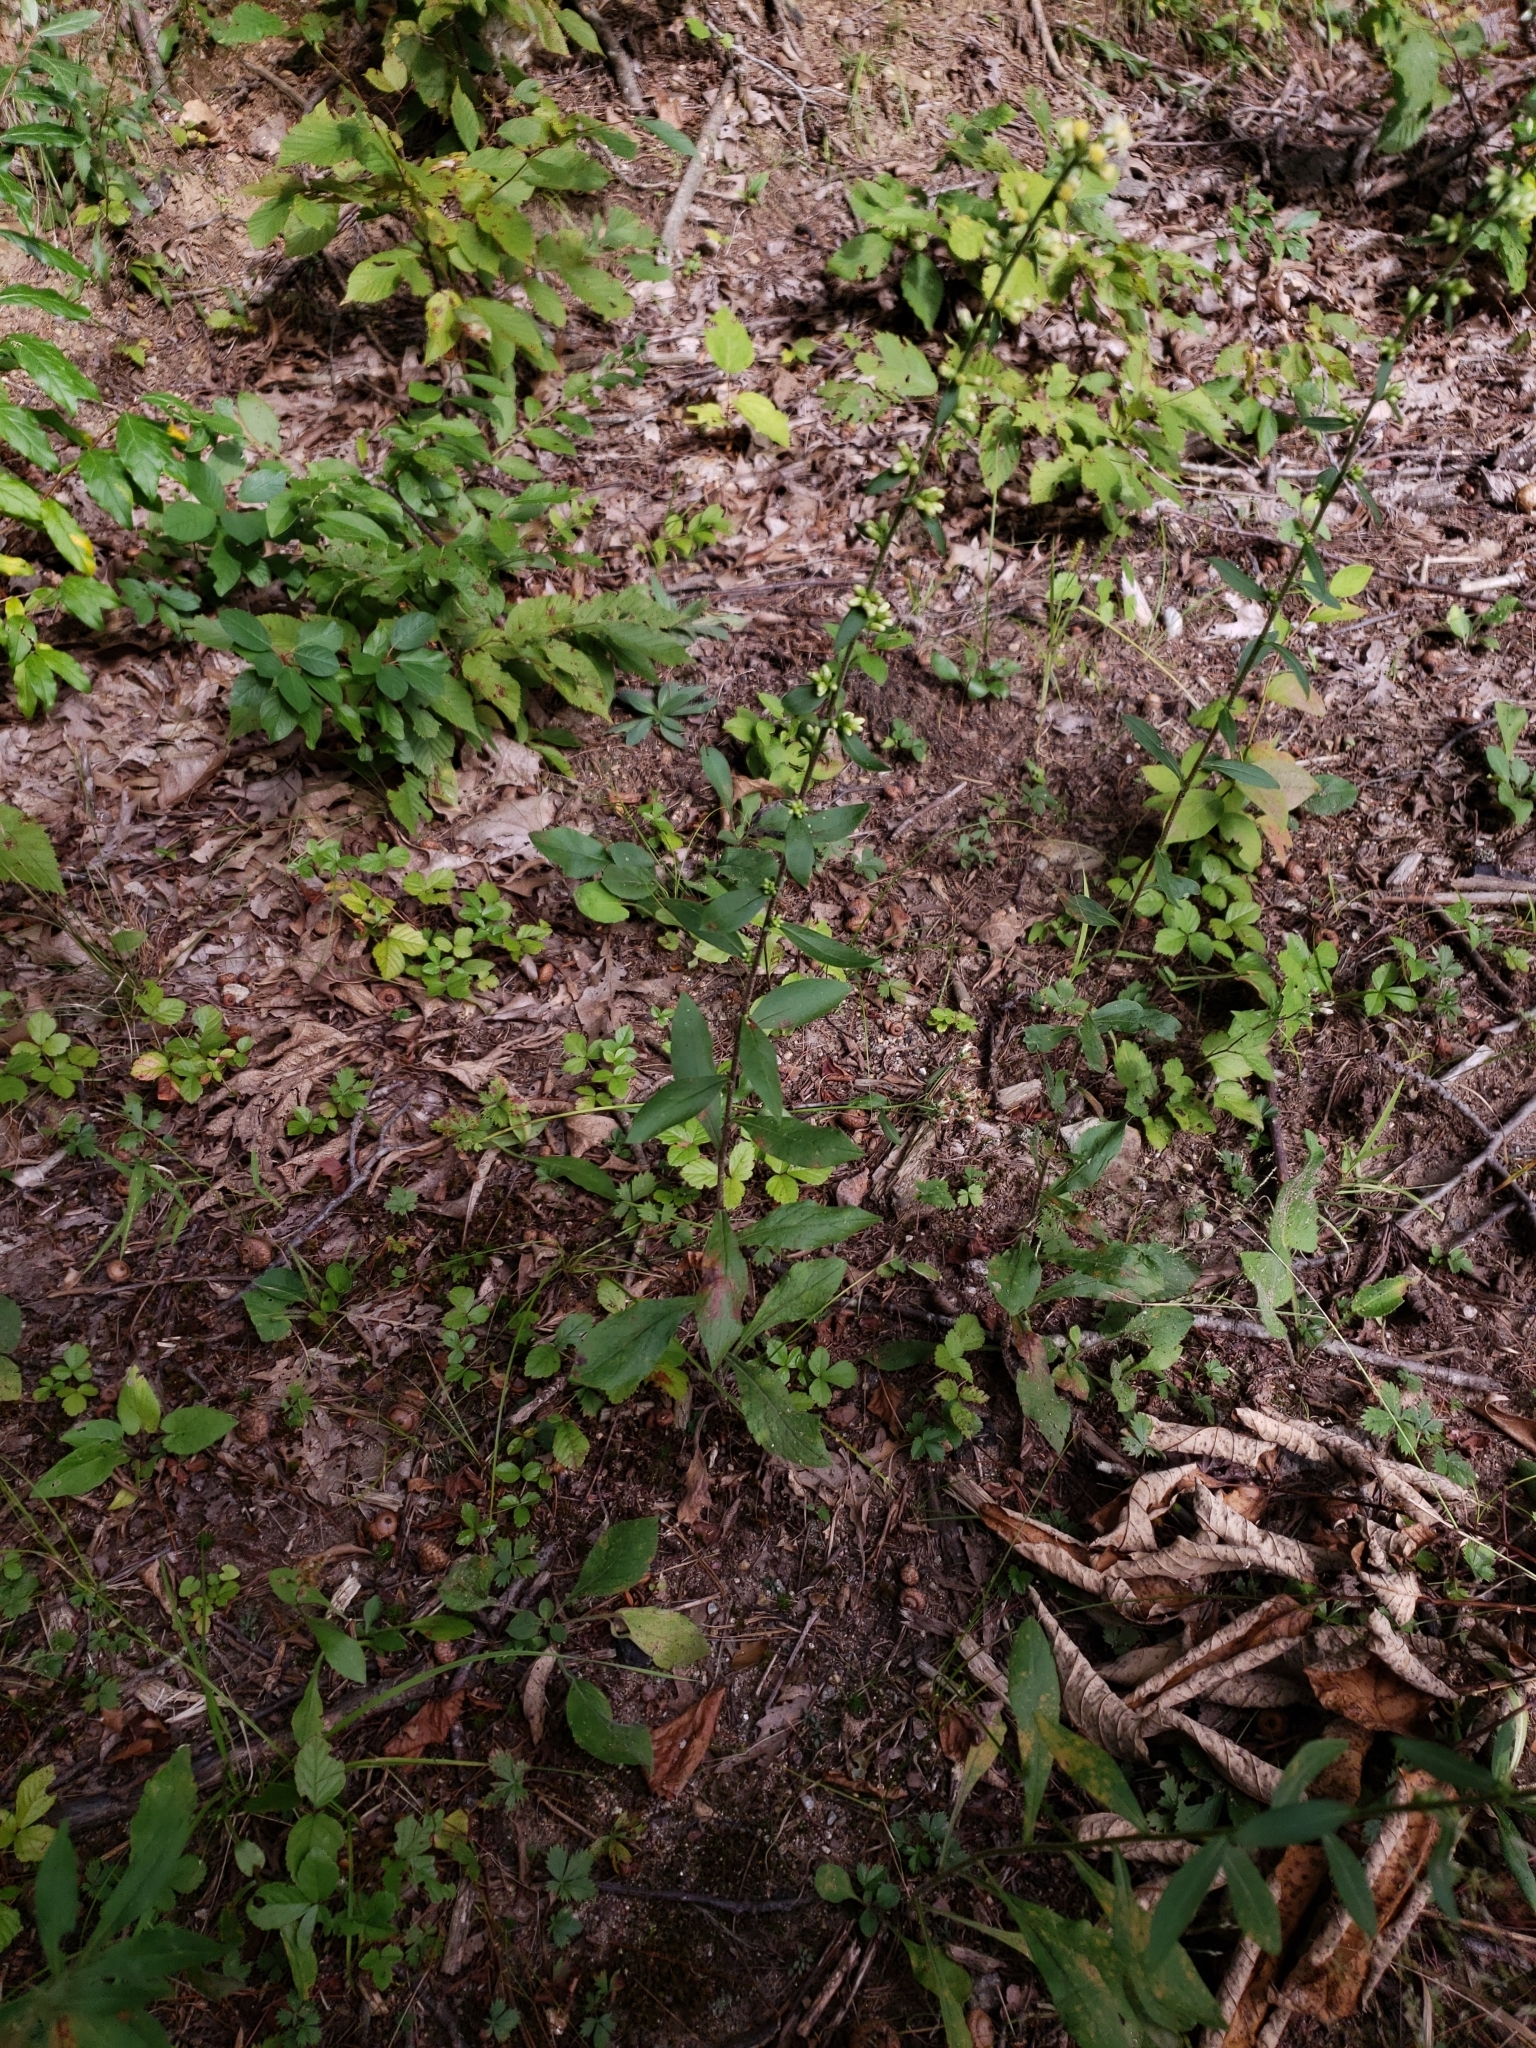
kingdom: Plantae
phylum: Tracheophyta
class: Magnoliopsida
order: Asterales
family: Asteraceae
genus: Solidago
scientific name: Solidago bicolor
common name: Silverrod
